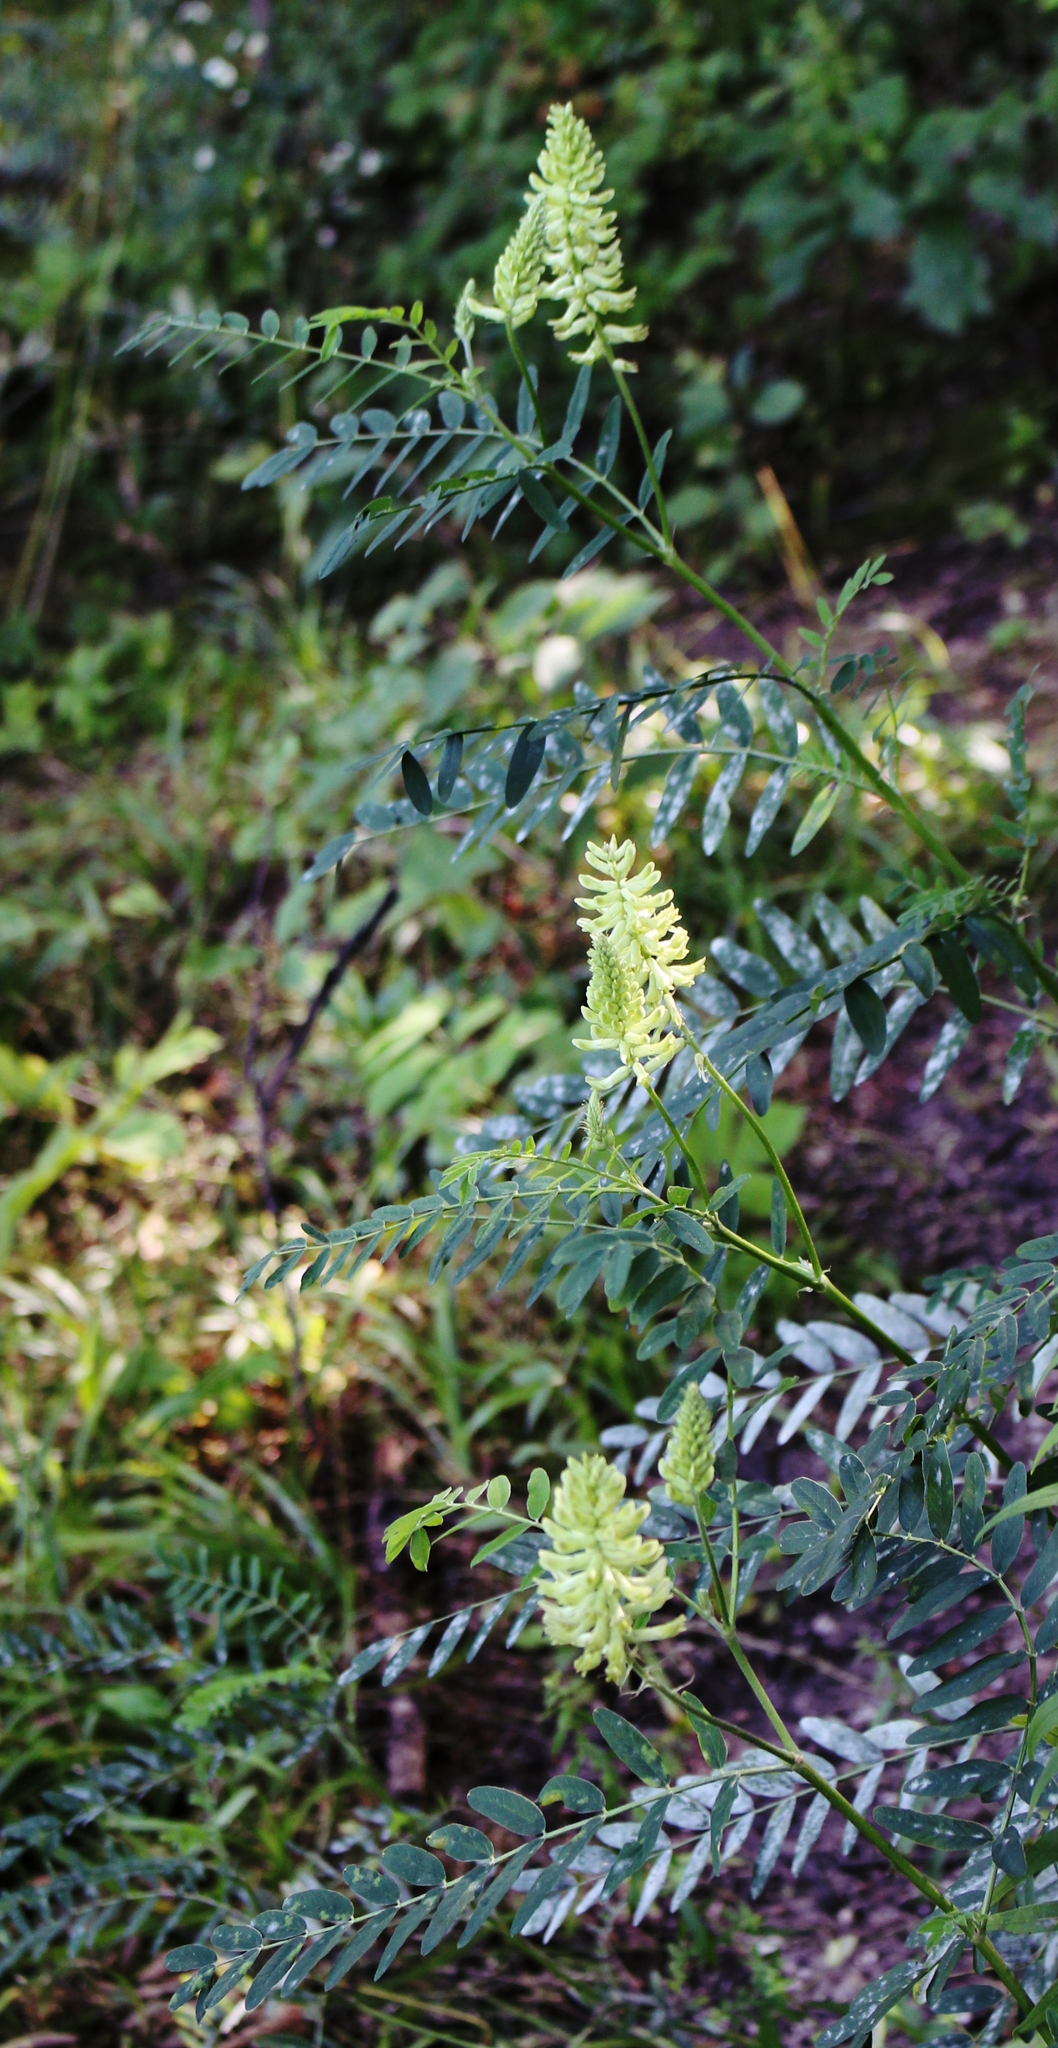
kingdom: Plantae
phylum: Tracheophyta
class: Magnoliopsida
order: Fabales
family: Fabaceae
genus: Astragalus
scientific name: Astragalus canadensis
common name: Canada milk-vetch
